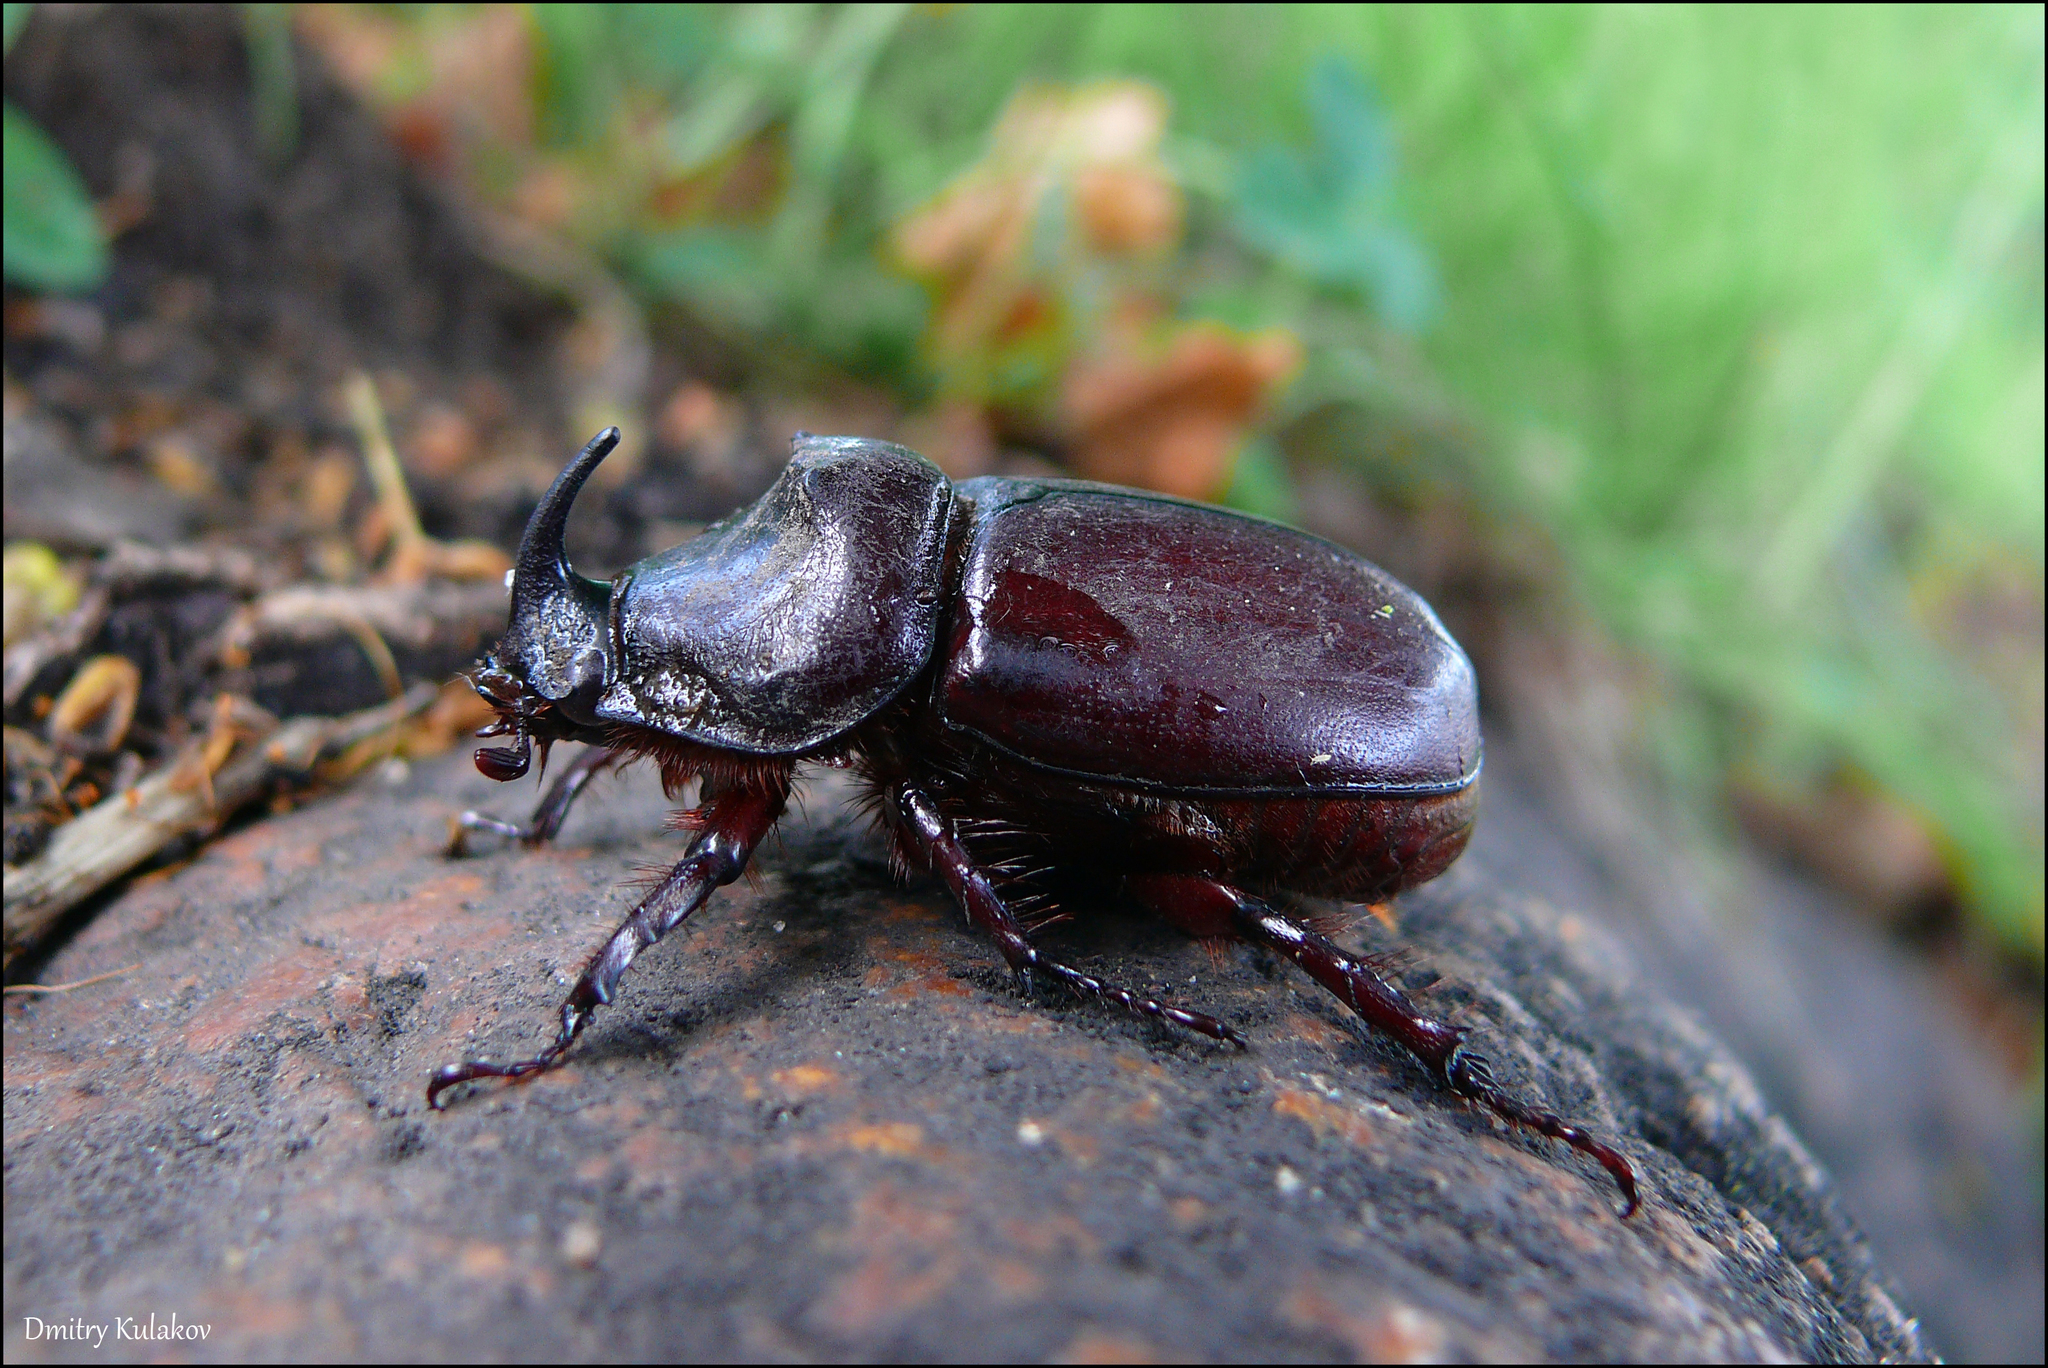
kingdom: Animalia
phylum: Arthropoda
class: Insecta
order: Coleoptera
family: Scarabaeidae
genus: Oryctes
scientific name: Oryctes nasicornis
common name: European rhinoceros beetle
